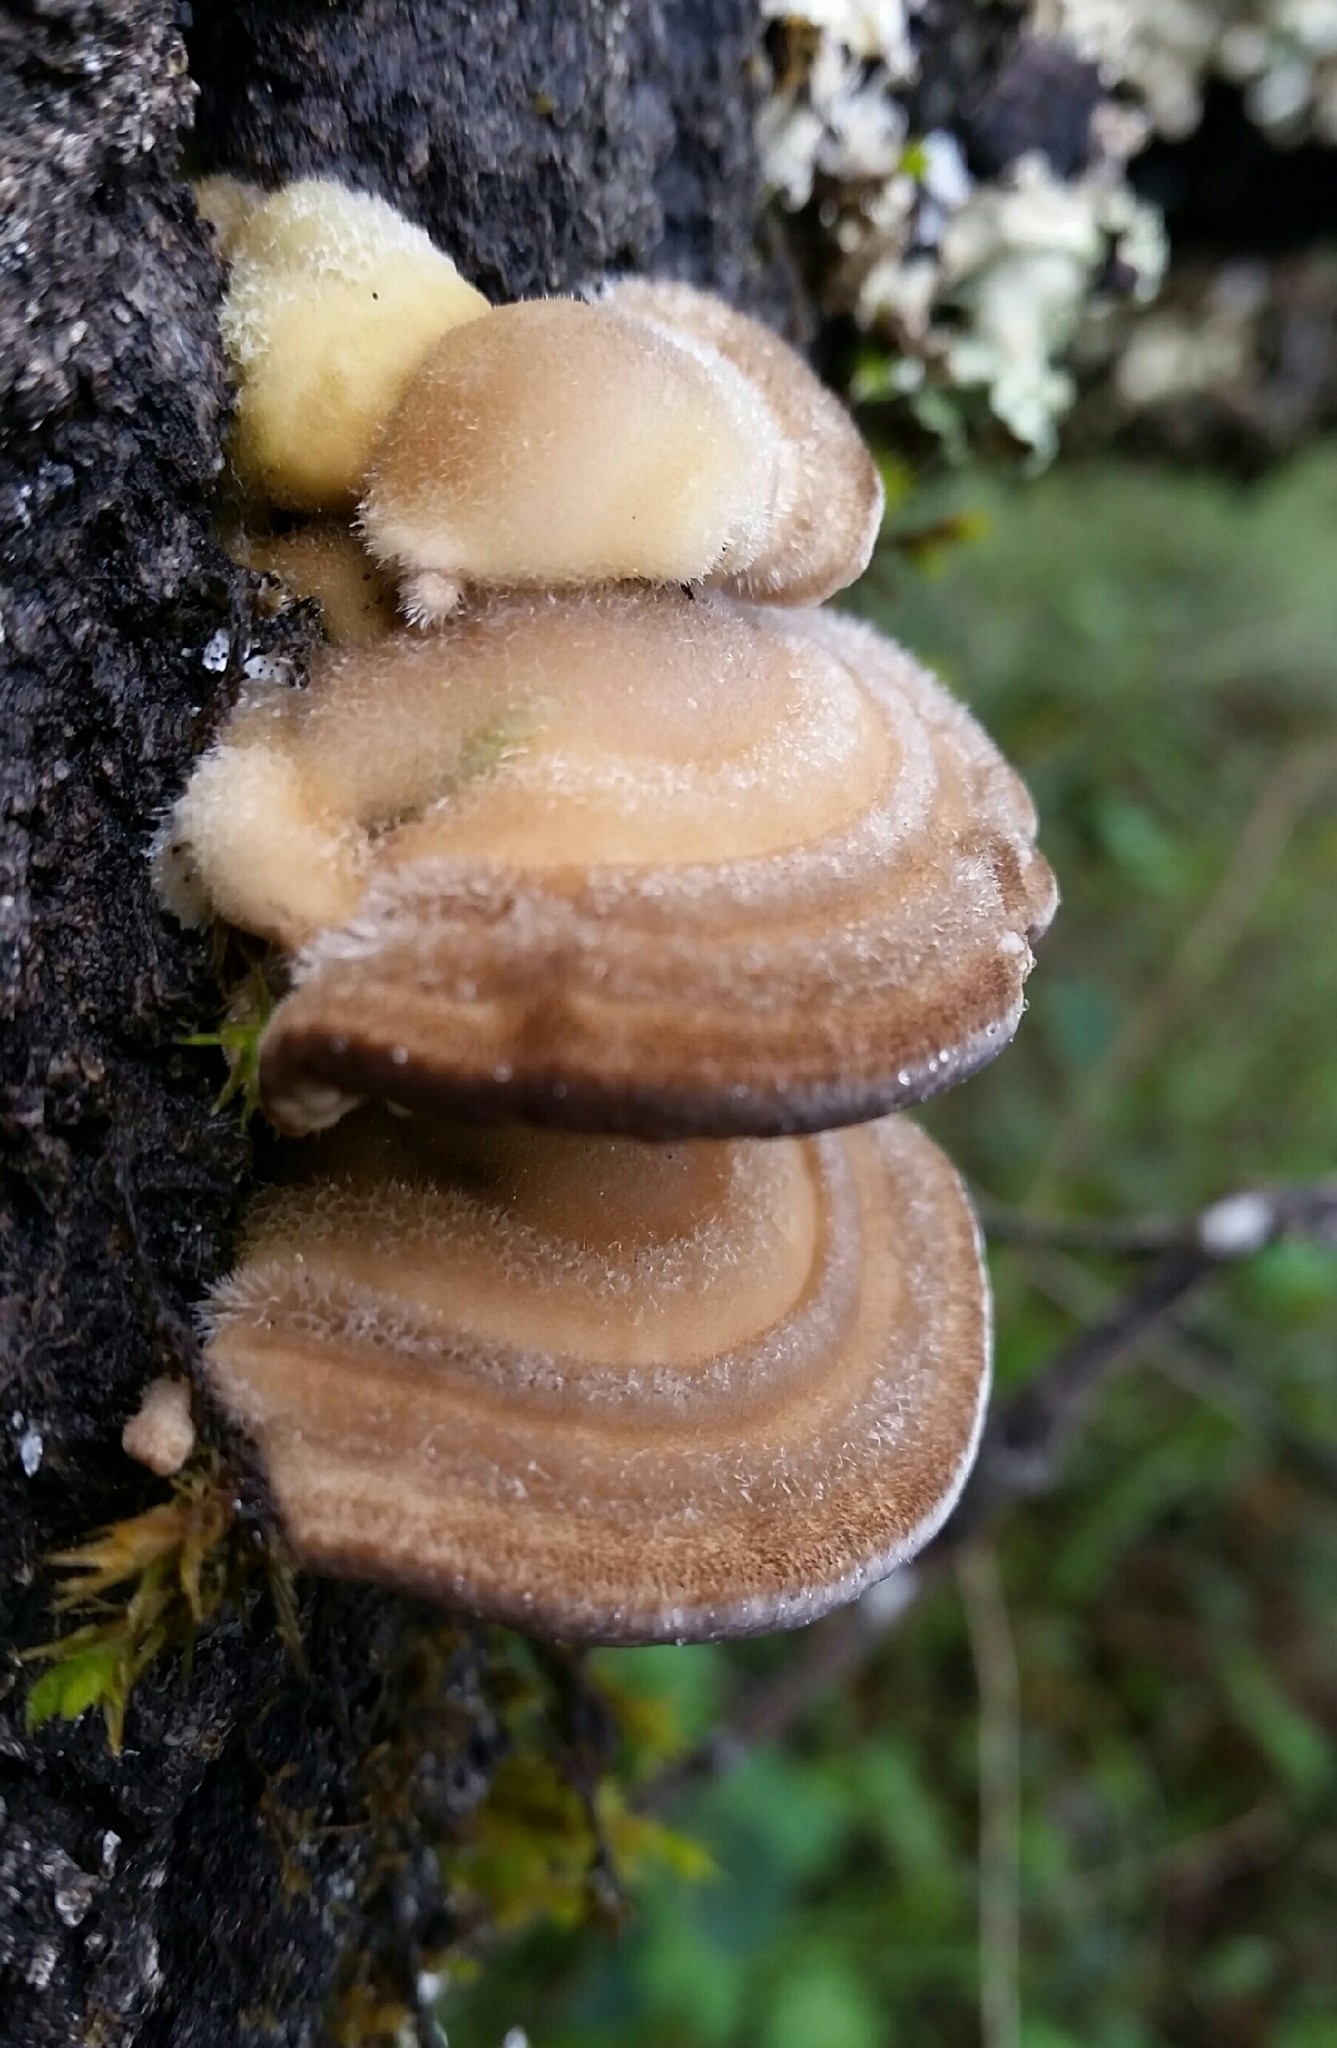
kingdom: Fungi
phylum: Basidiomycota
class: Agaricomycetes
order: Polyporales
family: Polyporaceae
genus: Lenzites
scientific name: Lenzites betulinus
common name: Birch mazegill
